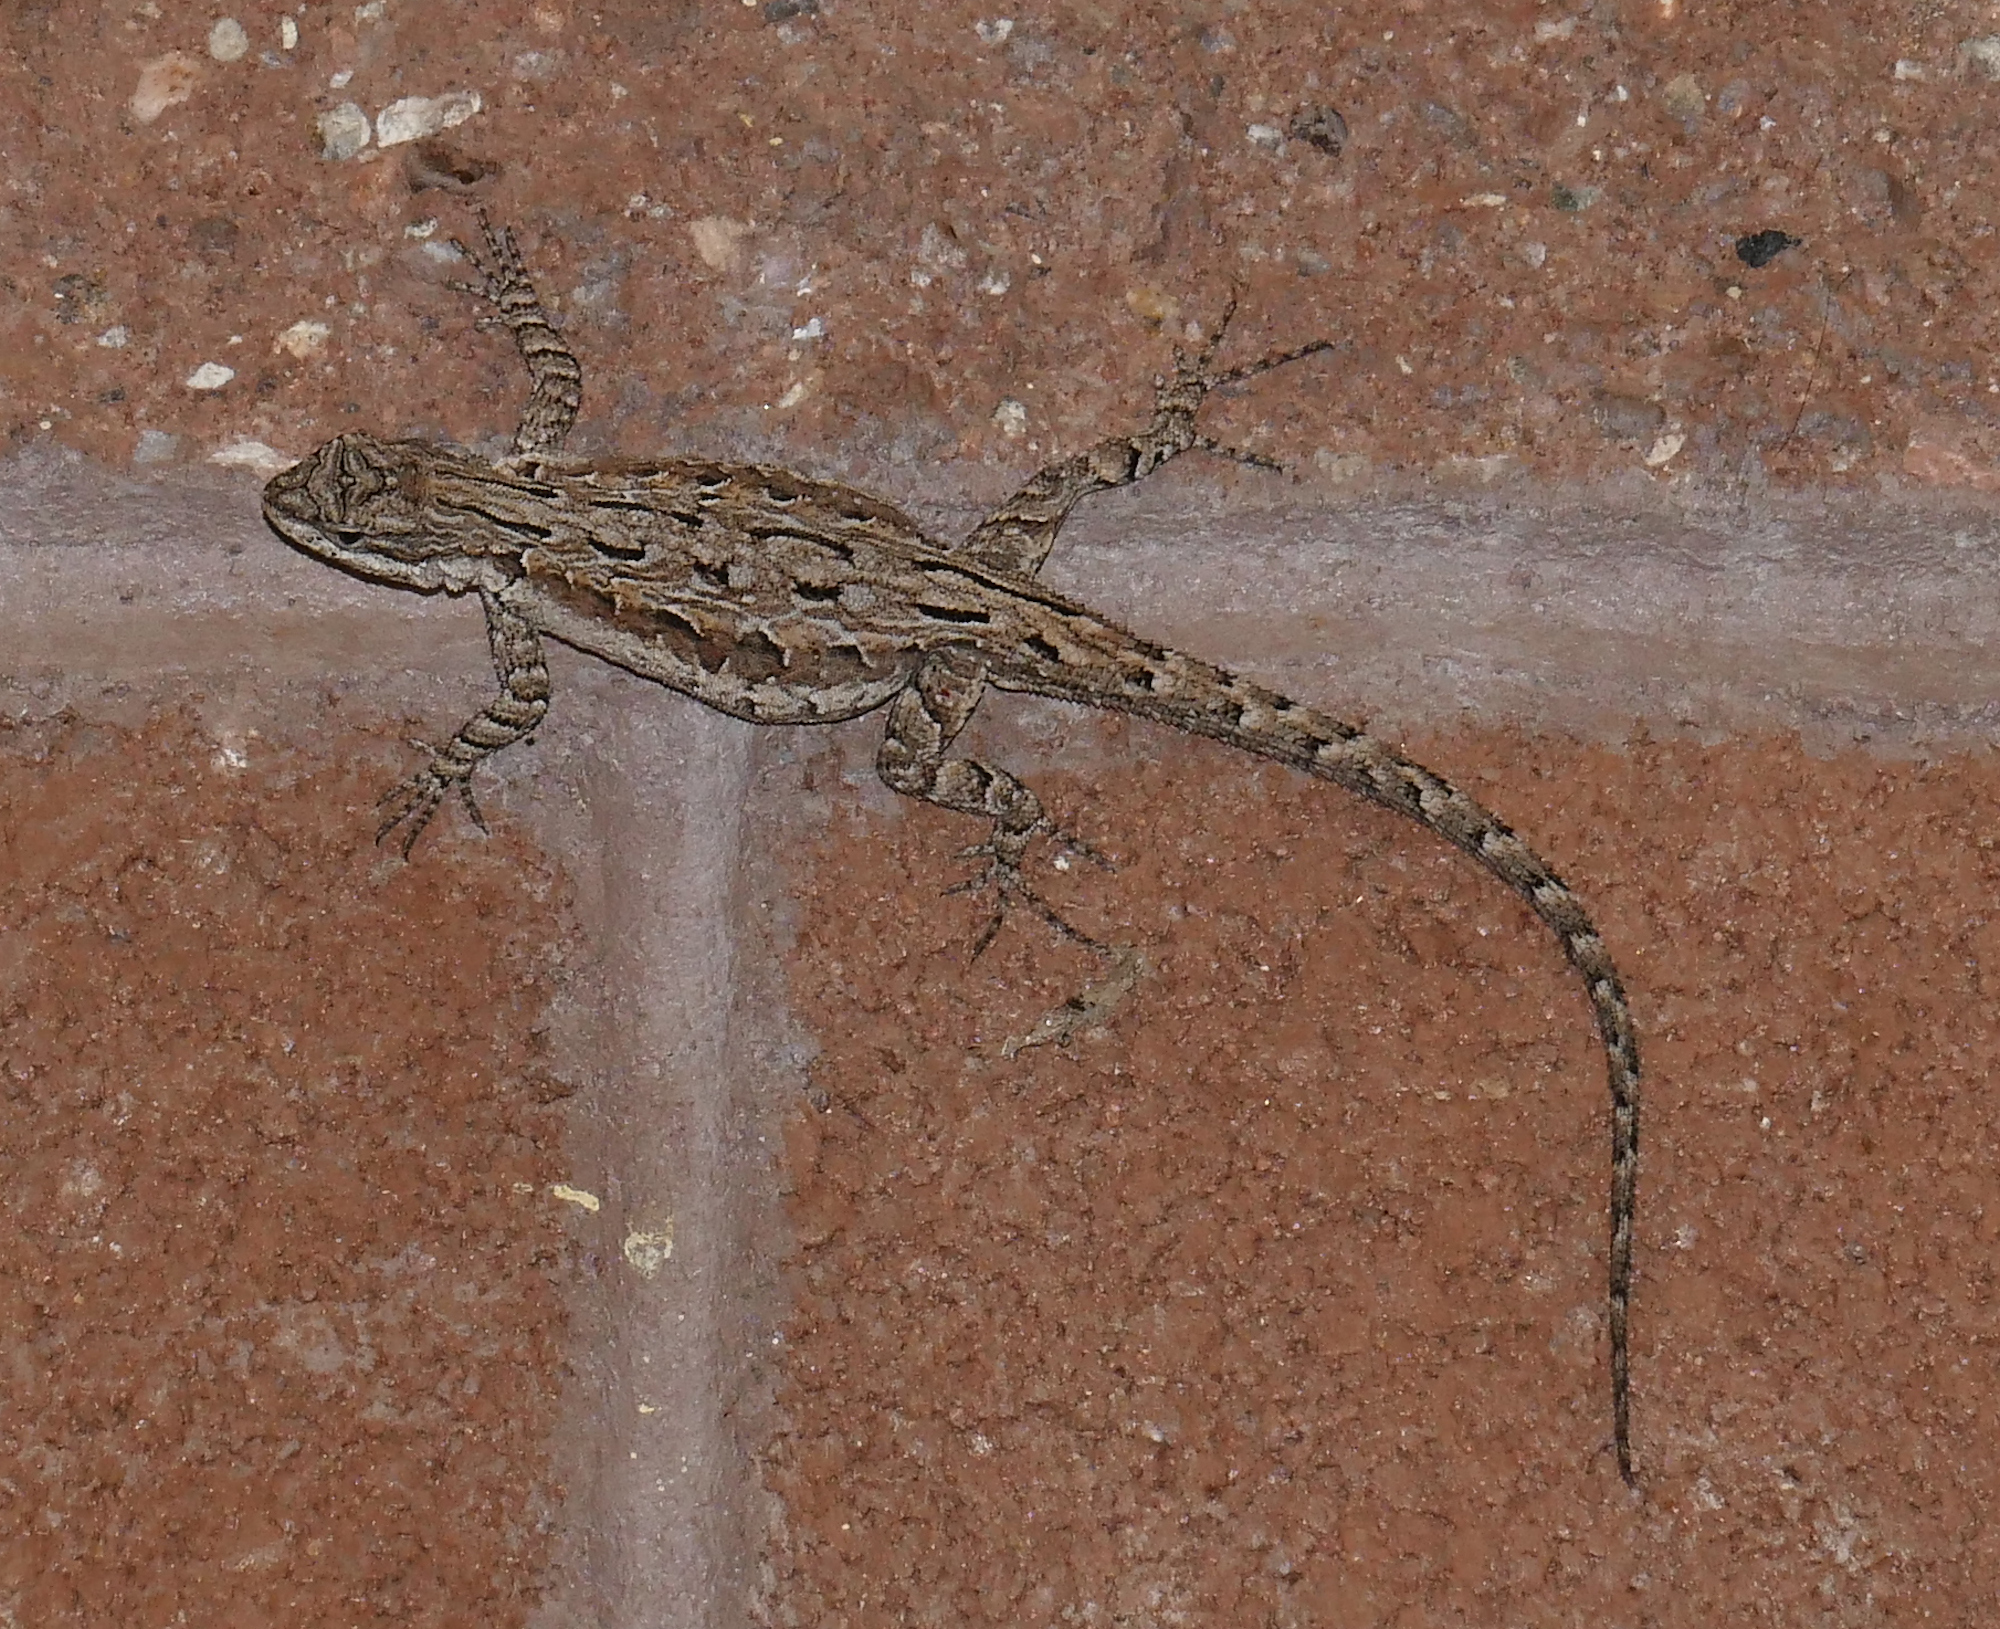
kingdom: Animalia
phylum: Chordata
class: Squamata
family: Phrynosomatidae
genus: Urosaurus
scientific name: Urosaurus ornatus
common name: Ornate tree lizard
